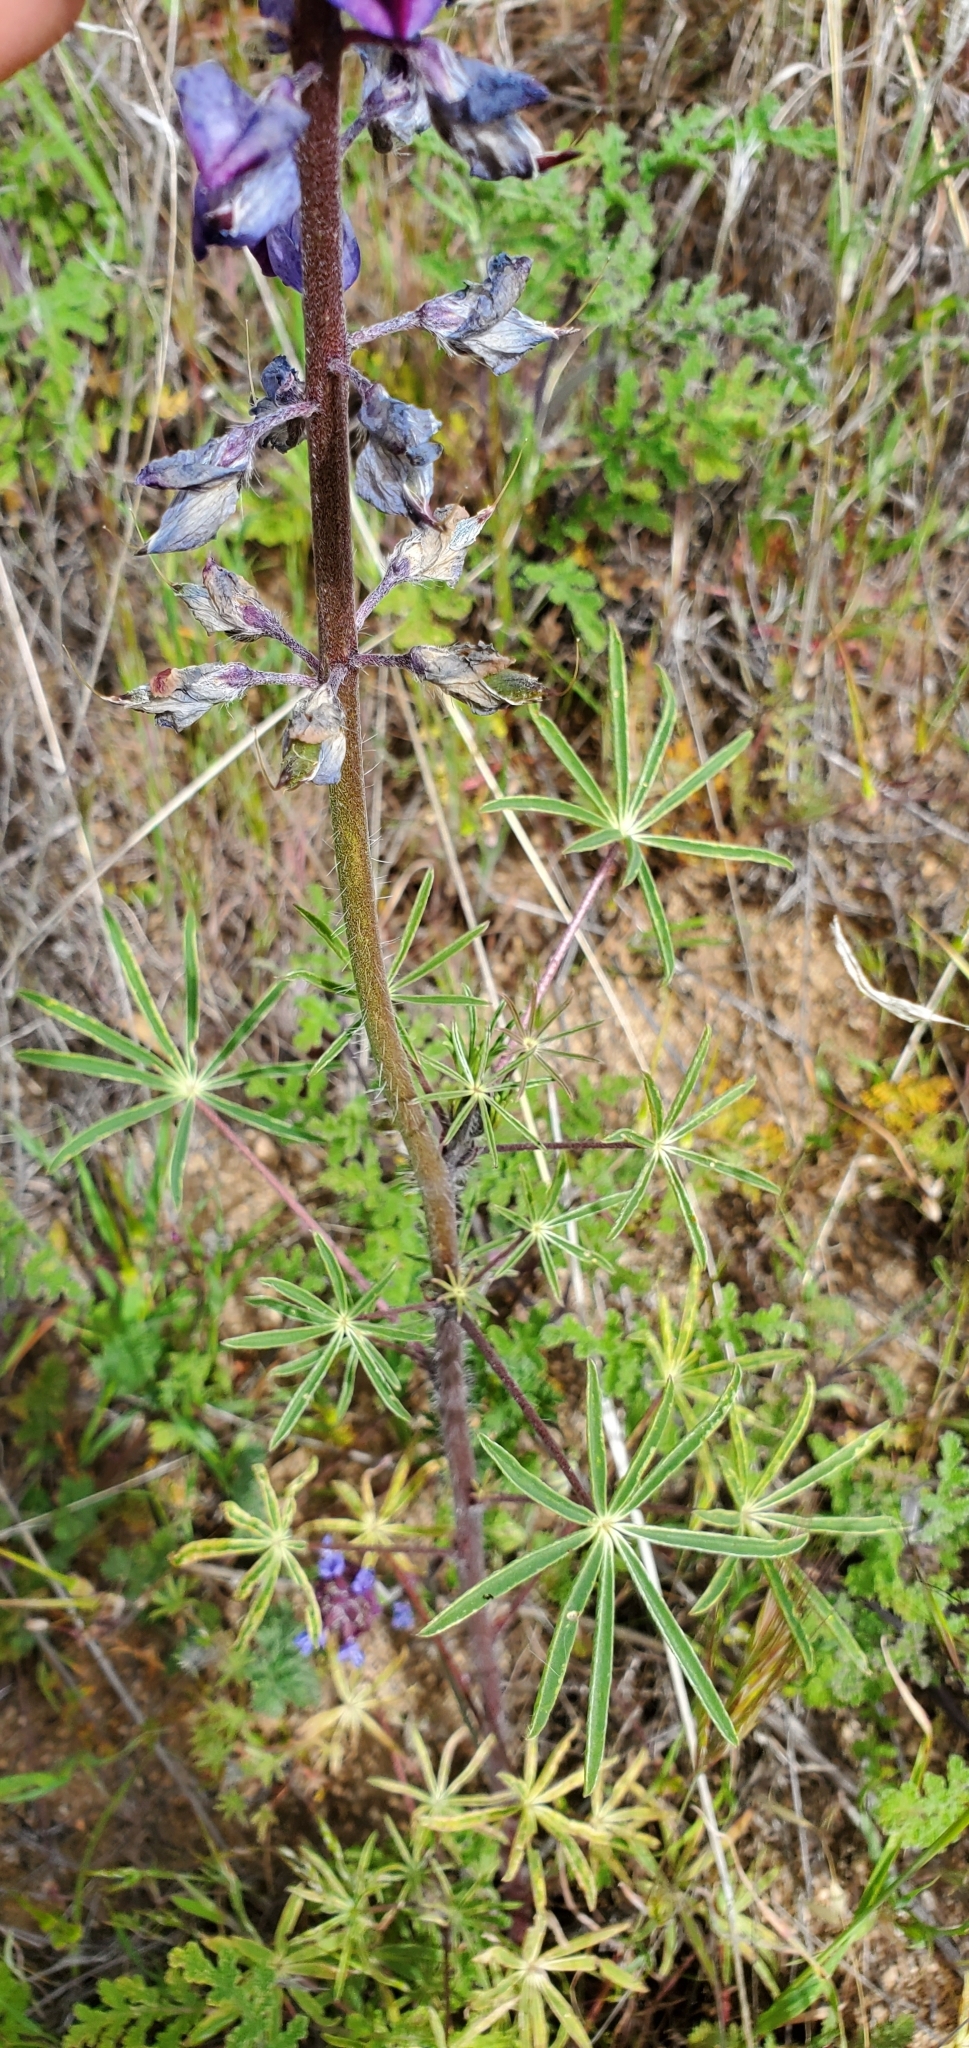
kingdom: Plantae
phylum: Tracheophyta
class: Magnoliopsida
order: Fabales
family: Fabaceae
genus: Lupinus
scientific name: Lupinus benthamii
